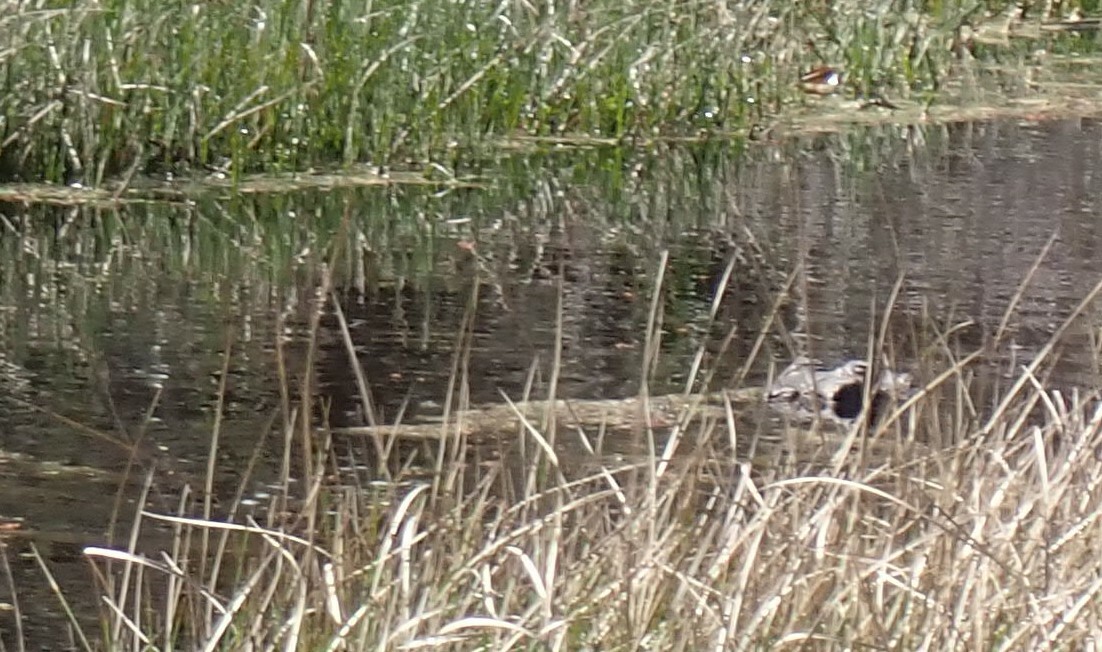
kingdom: Animalia
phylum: Chordata
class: Crocodylia
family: Alligatoridae
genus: Alligator
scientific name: Alligator mississippiensis
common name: American alligator
